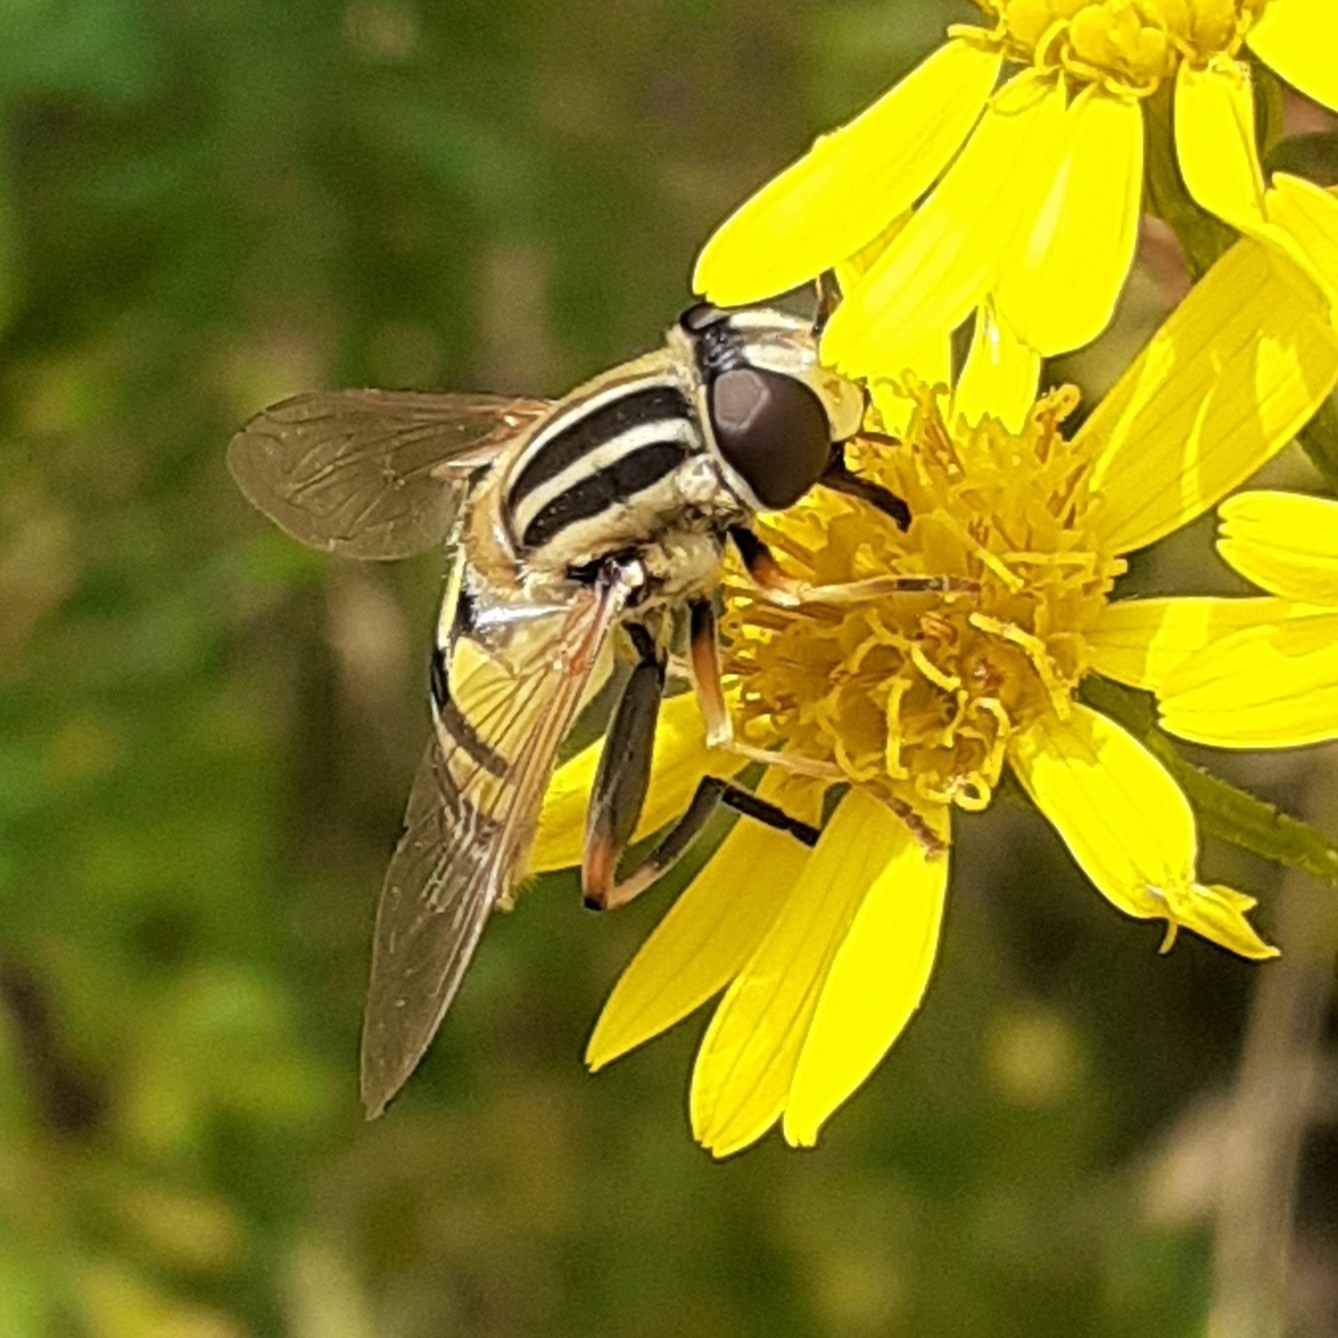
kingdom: Animalia
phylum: Arthropoda
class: Insecta
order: Diptera
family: Syrphidae
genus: Helophilus
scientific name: Helophilus trivittatus
